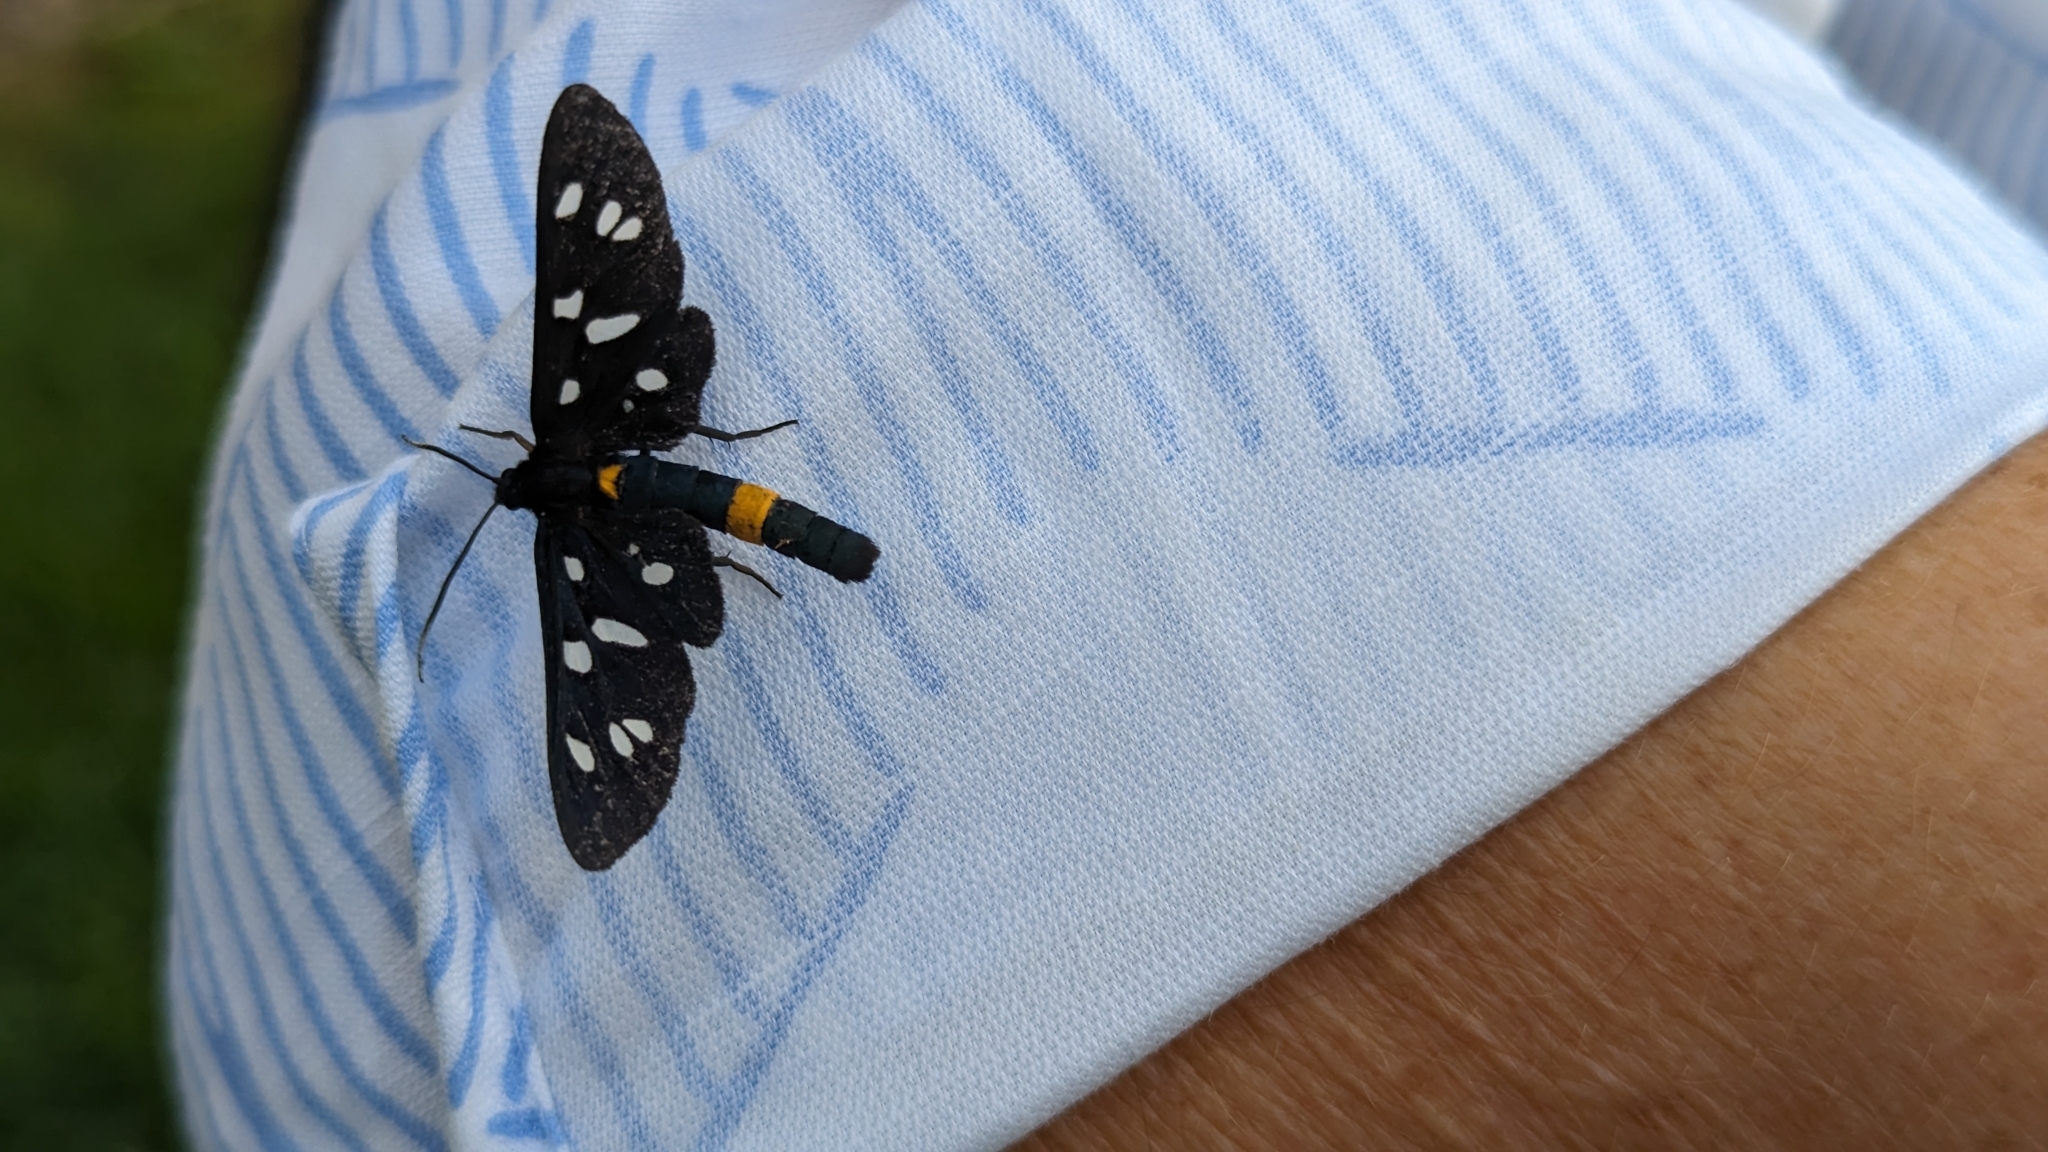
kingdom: Animalia
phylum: Arthropoda
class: Insecta
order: Lepidoptera
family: Erebidae
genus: Amata
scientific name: Amata phegea
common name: Nine-spotted
